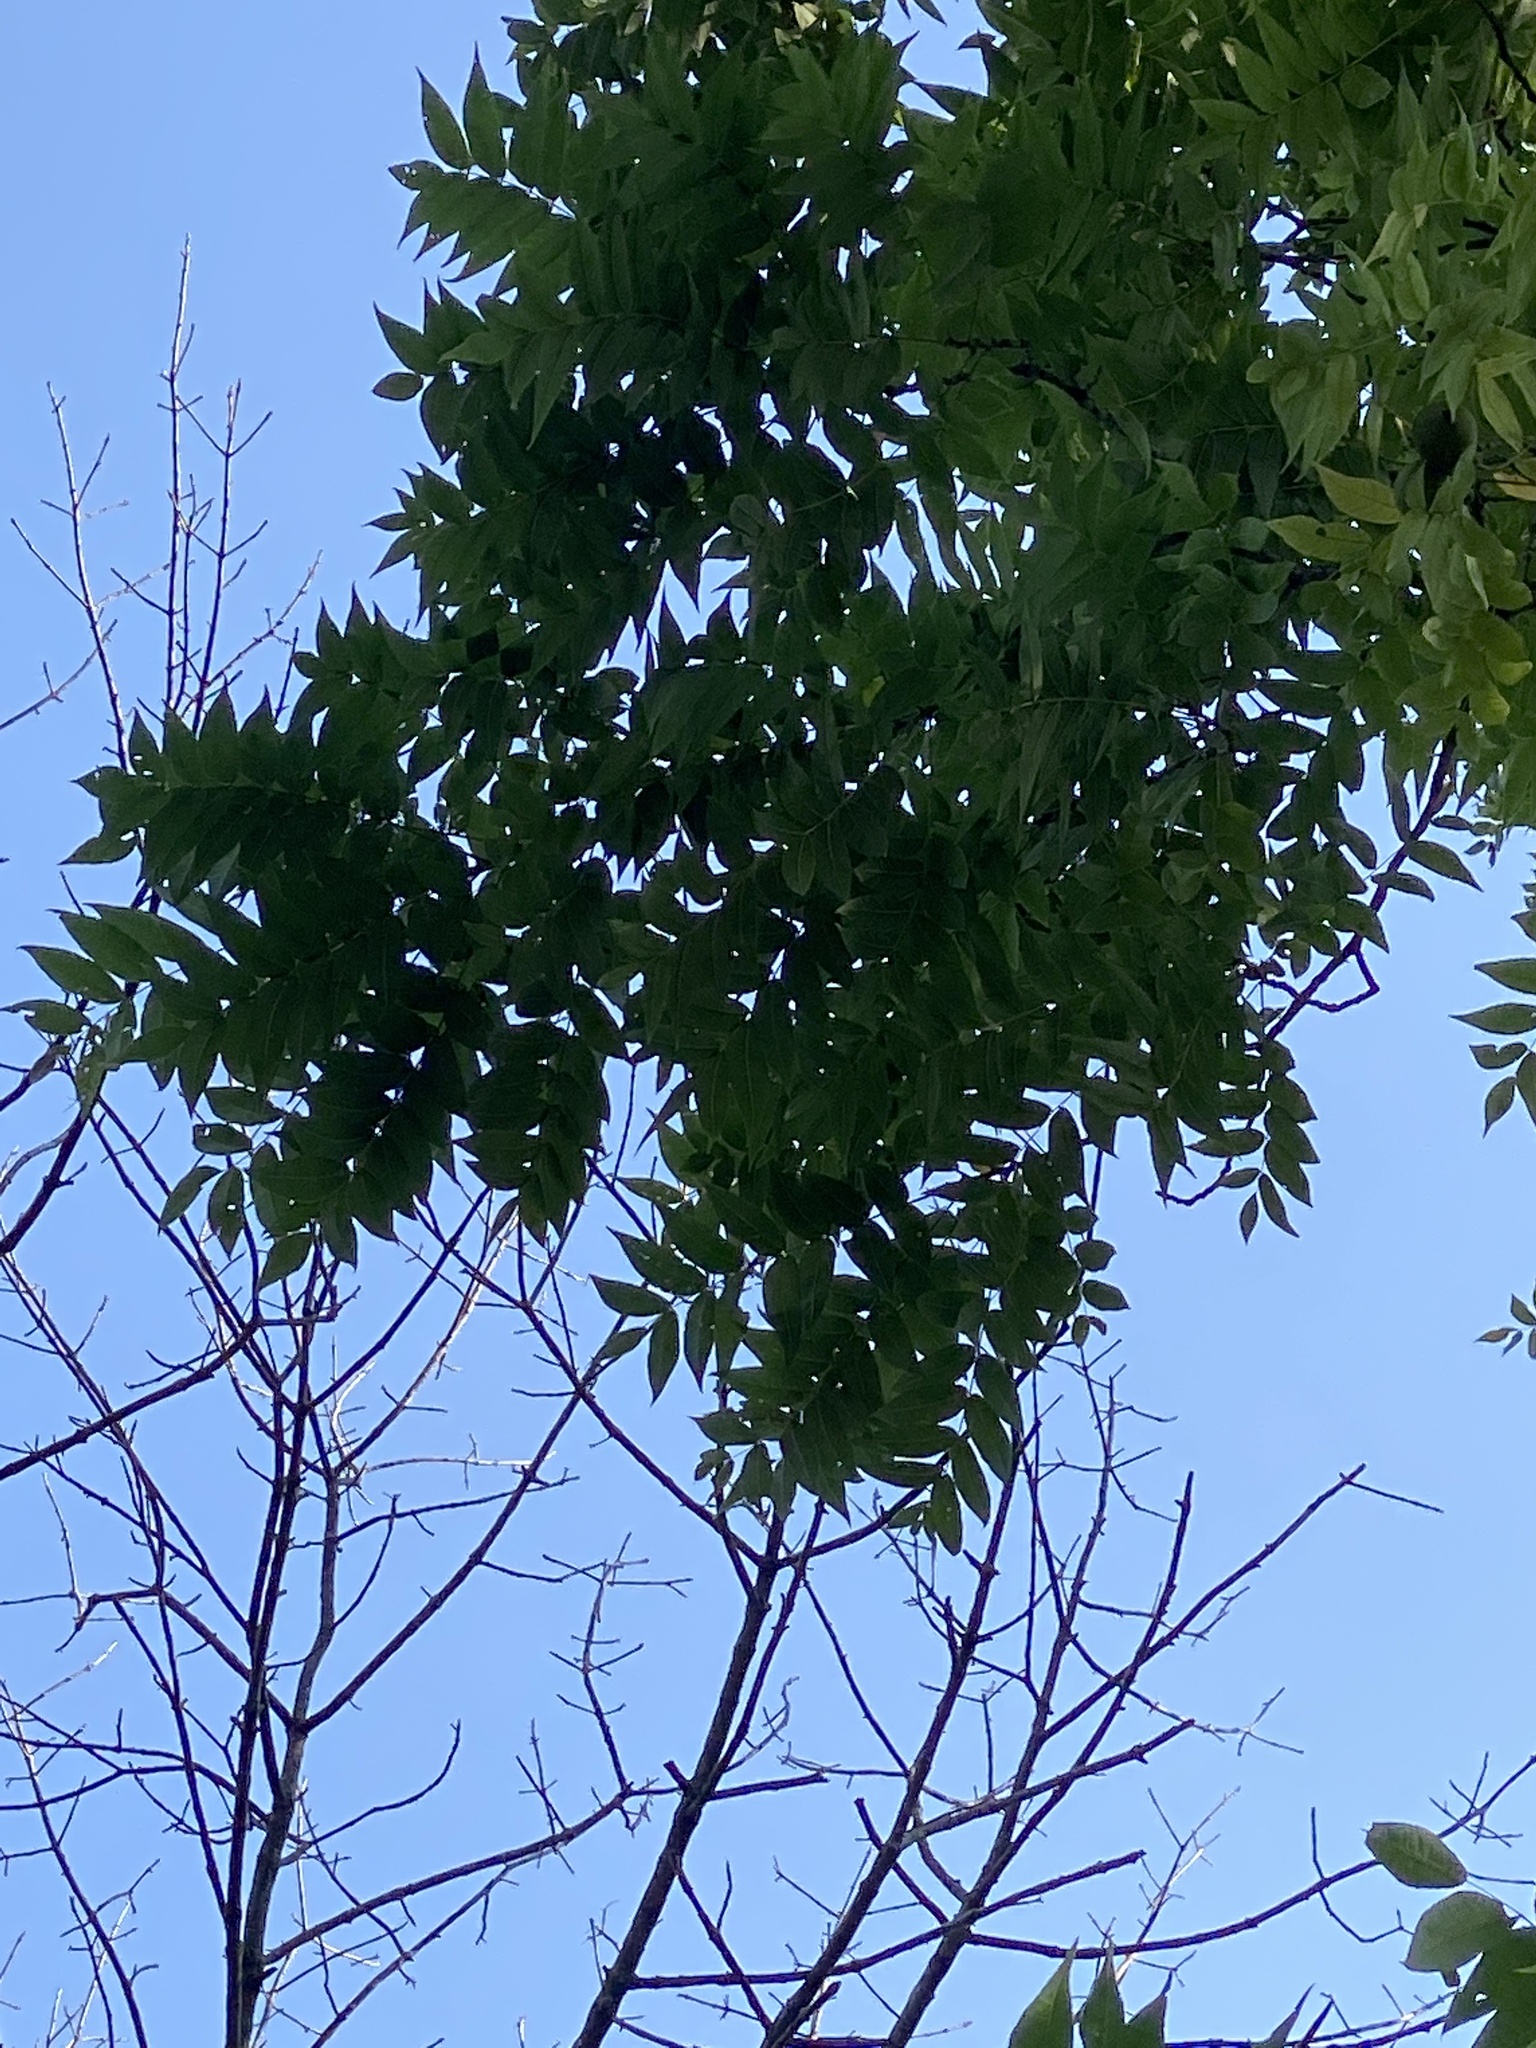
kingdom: Plantae
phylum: Tracheophyta
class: Magnoliopsida
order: Fagales
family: Juglandaceae
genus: Juglans
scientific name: Juglans nigra
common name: Black walnut
